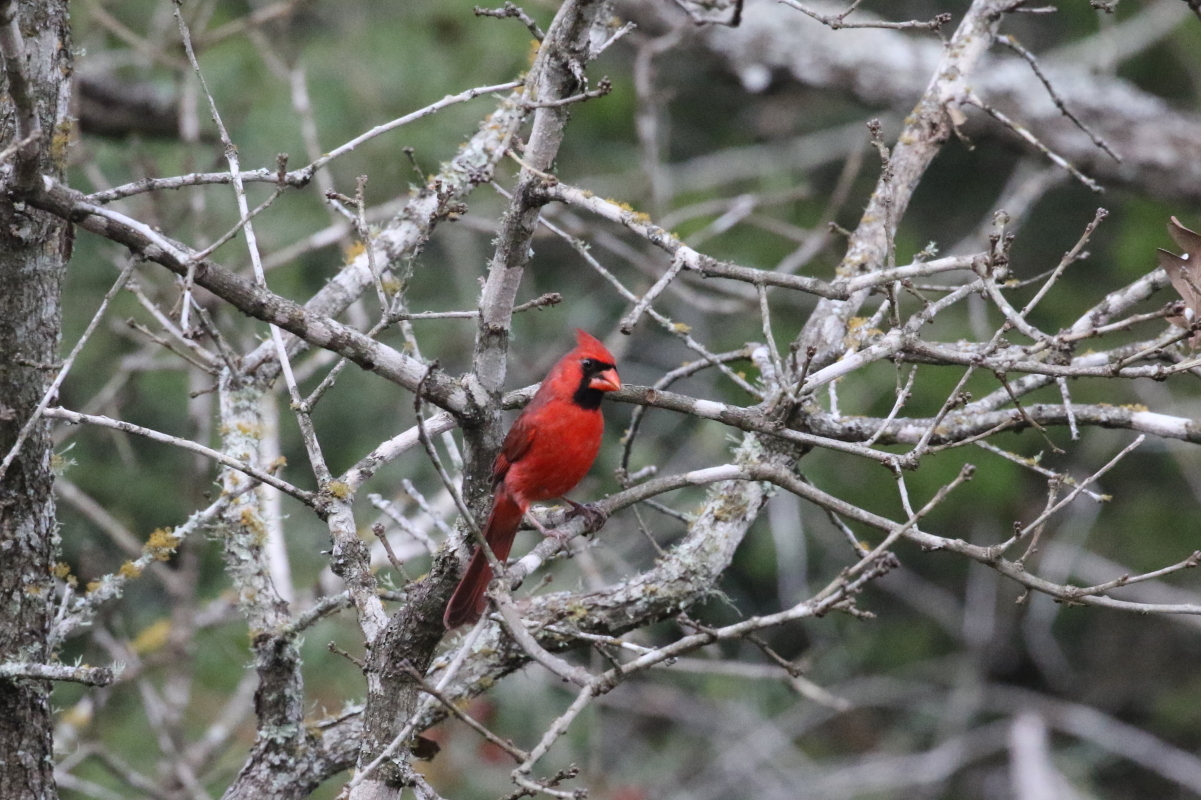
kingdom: Animalia
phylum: Chordata
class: Aves
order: Passeriformes
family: Cardinalidae
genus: Cardinalis
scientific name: Cardinalis cardinalis
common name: Northern cardinal
